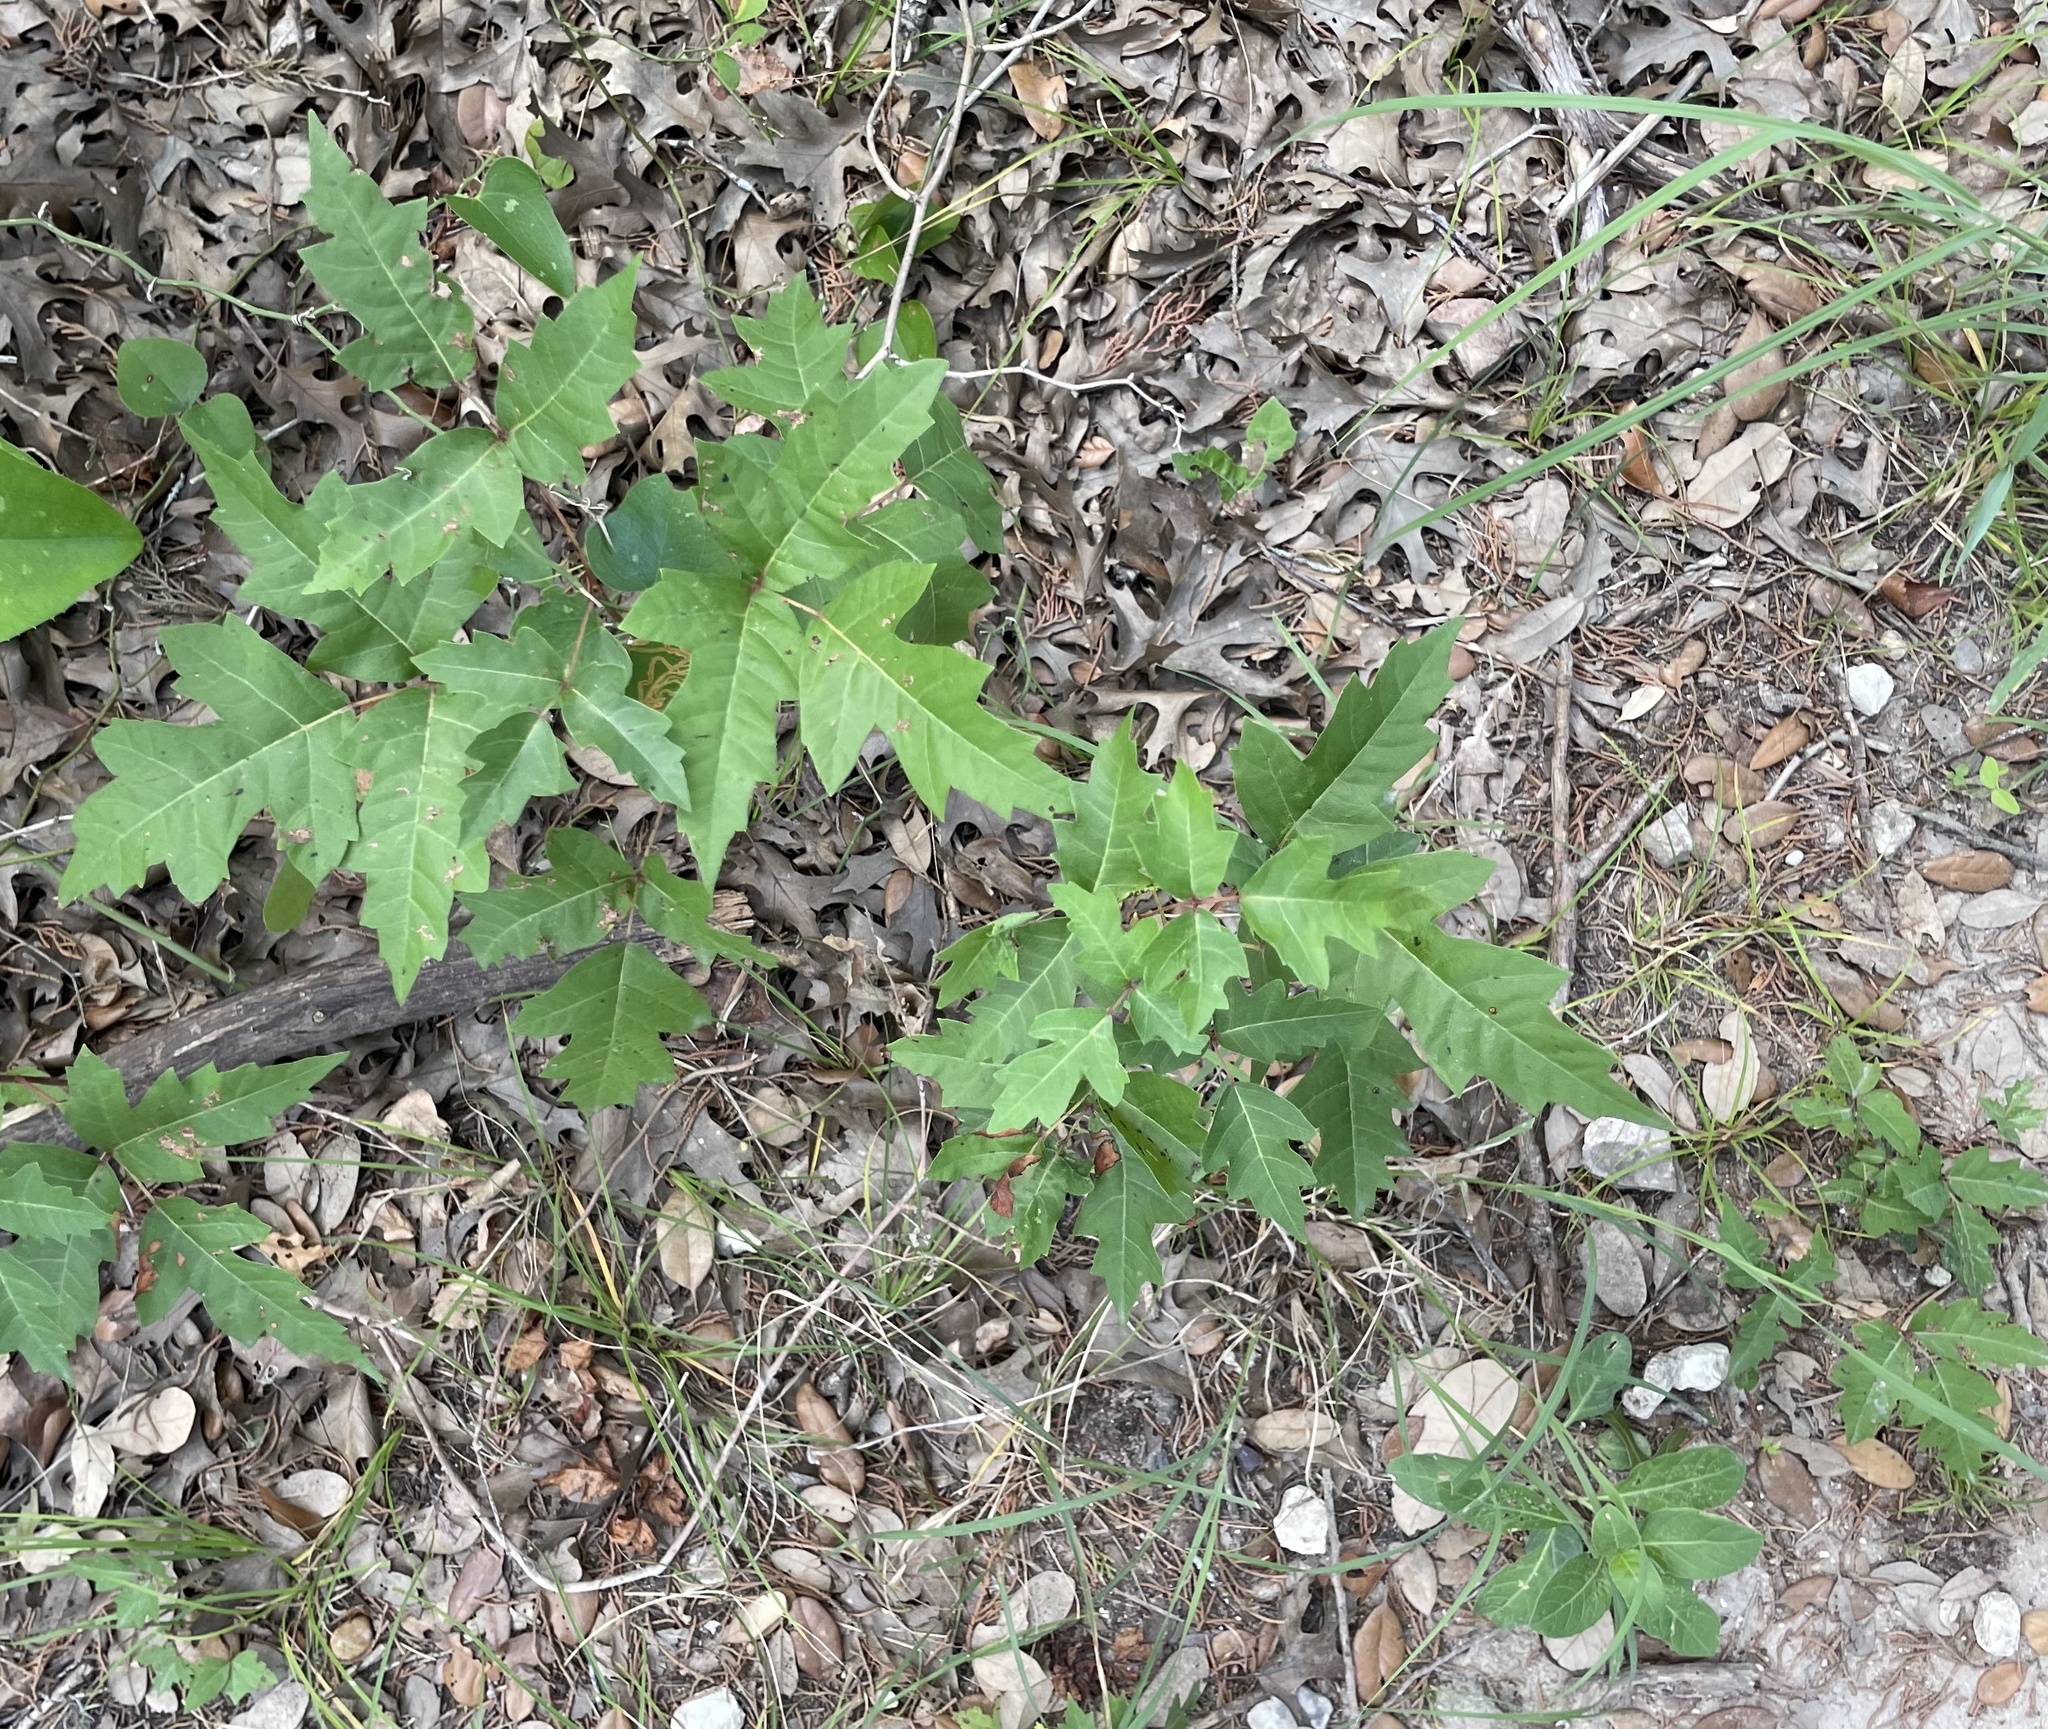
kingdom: Plantae
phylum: Tracheophyta
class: Magnoliopsida
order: Sapindales
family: Anacardiaceae
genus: Toxicodendron
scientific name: Toxicodendron radicans
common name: Poison ivy
